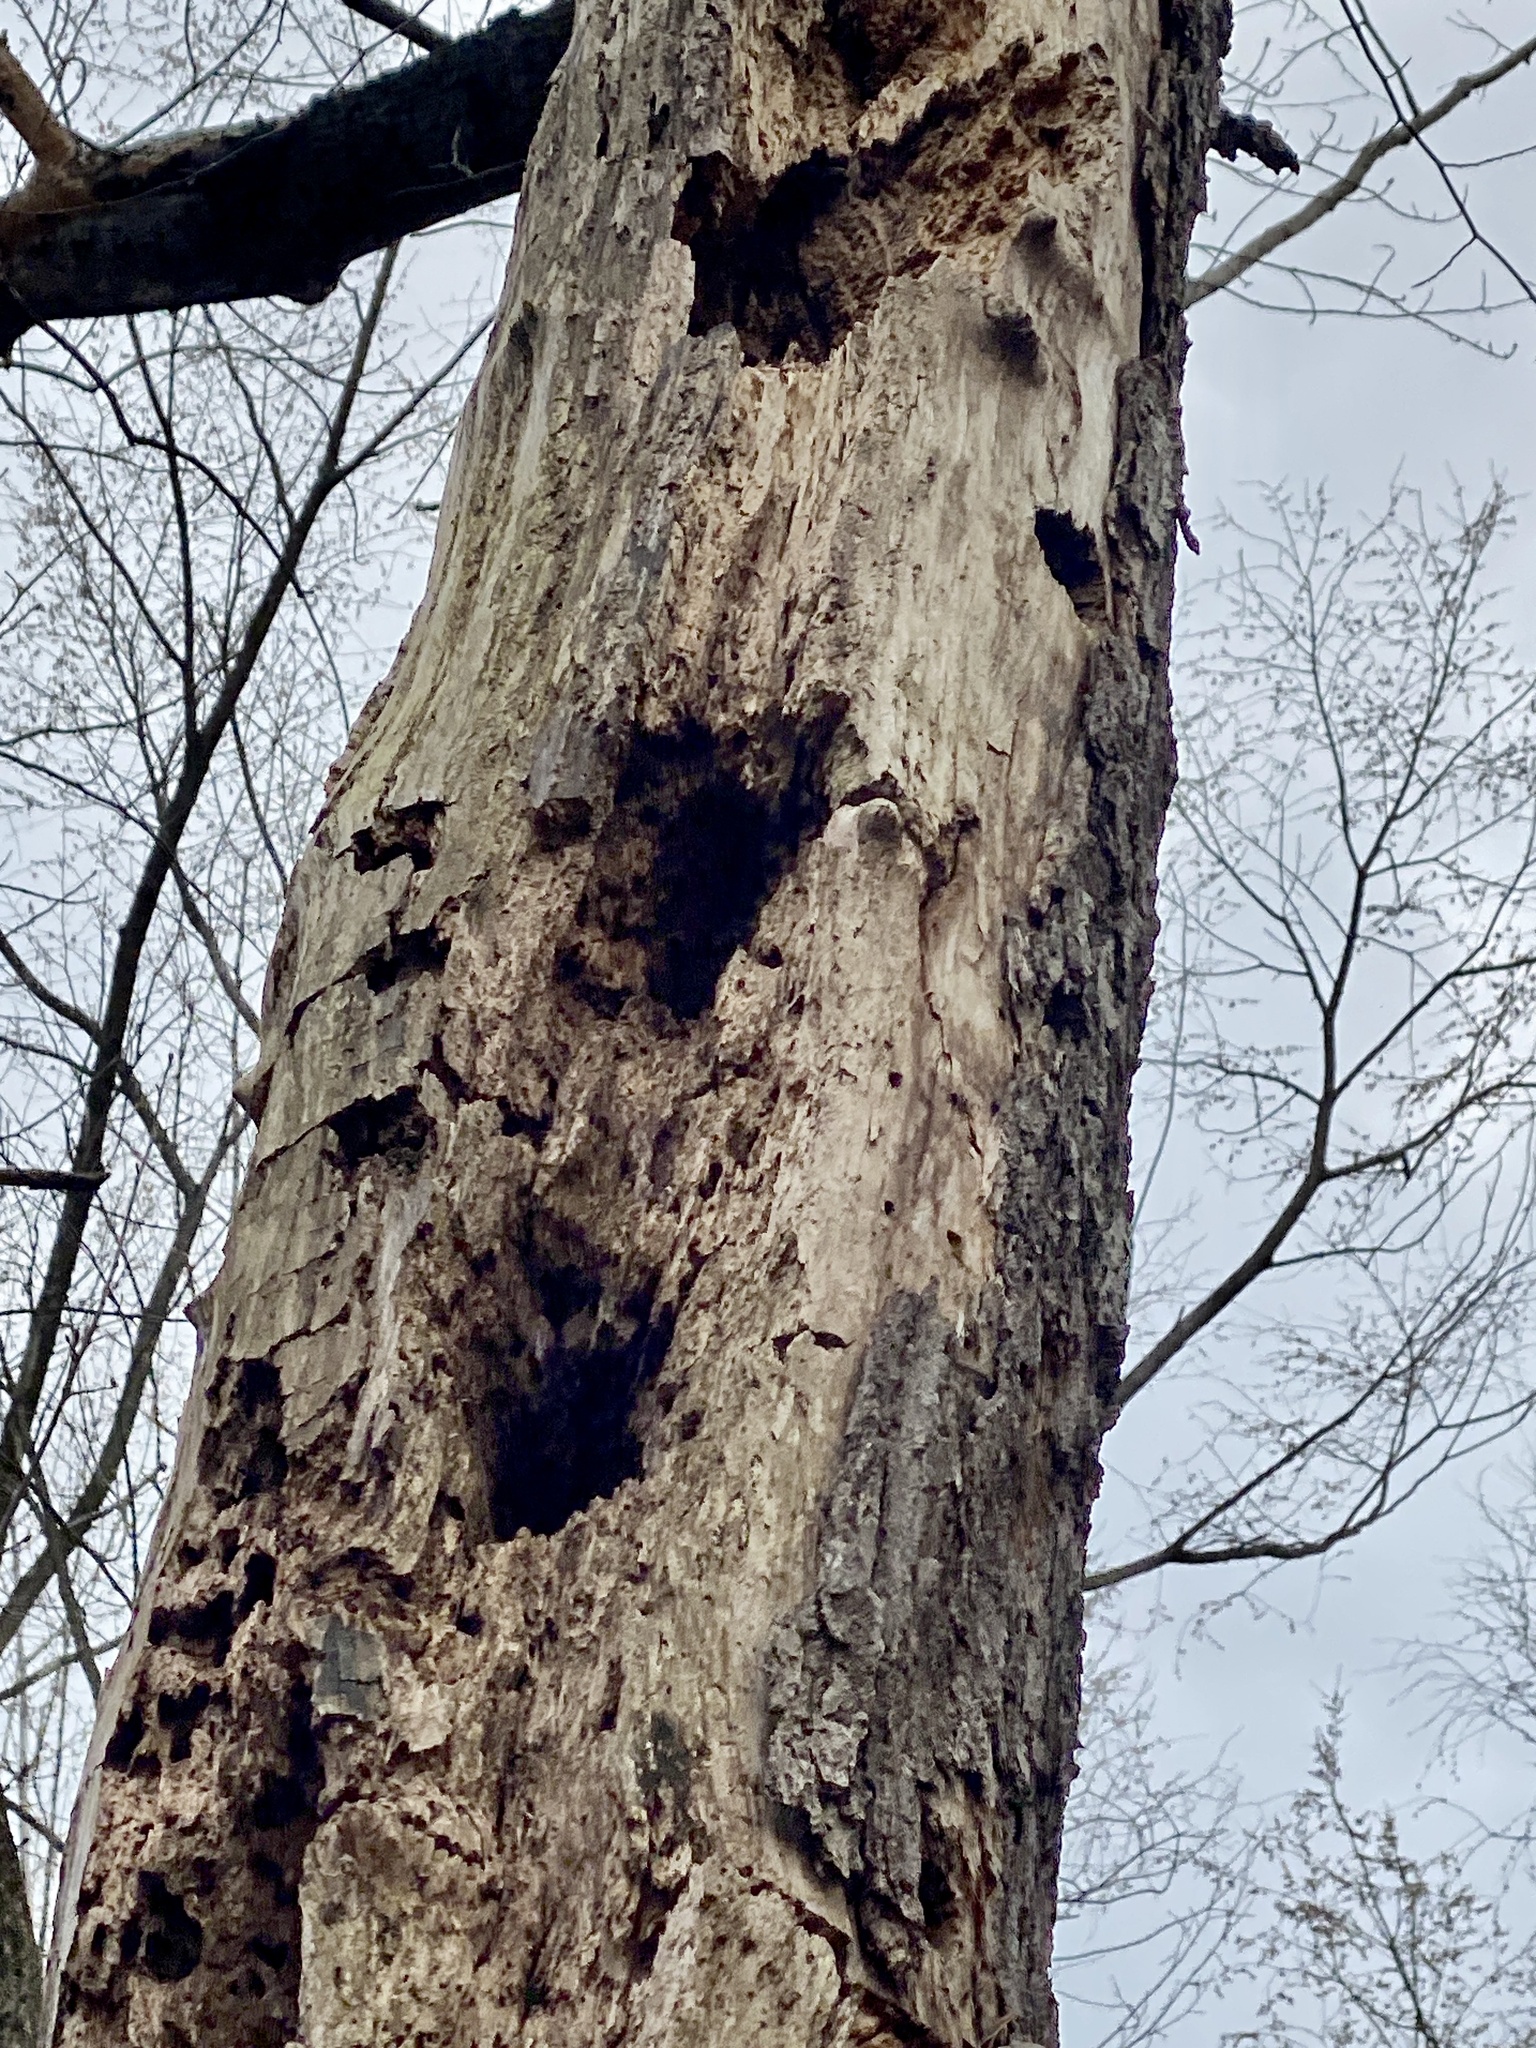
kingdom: Animalia
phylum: Chordata
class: Aves
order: Piciformes
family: Picidae
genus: Dryocopus
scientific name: Dryocopus pileatus
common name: Pileated woodpecker
